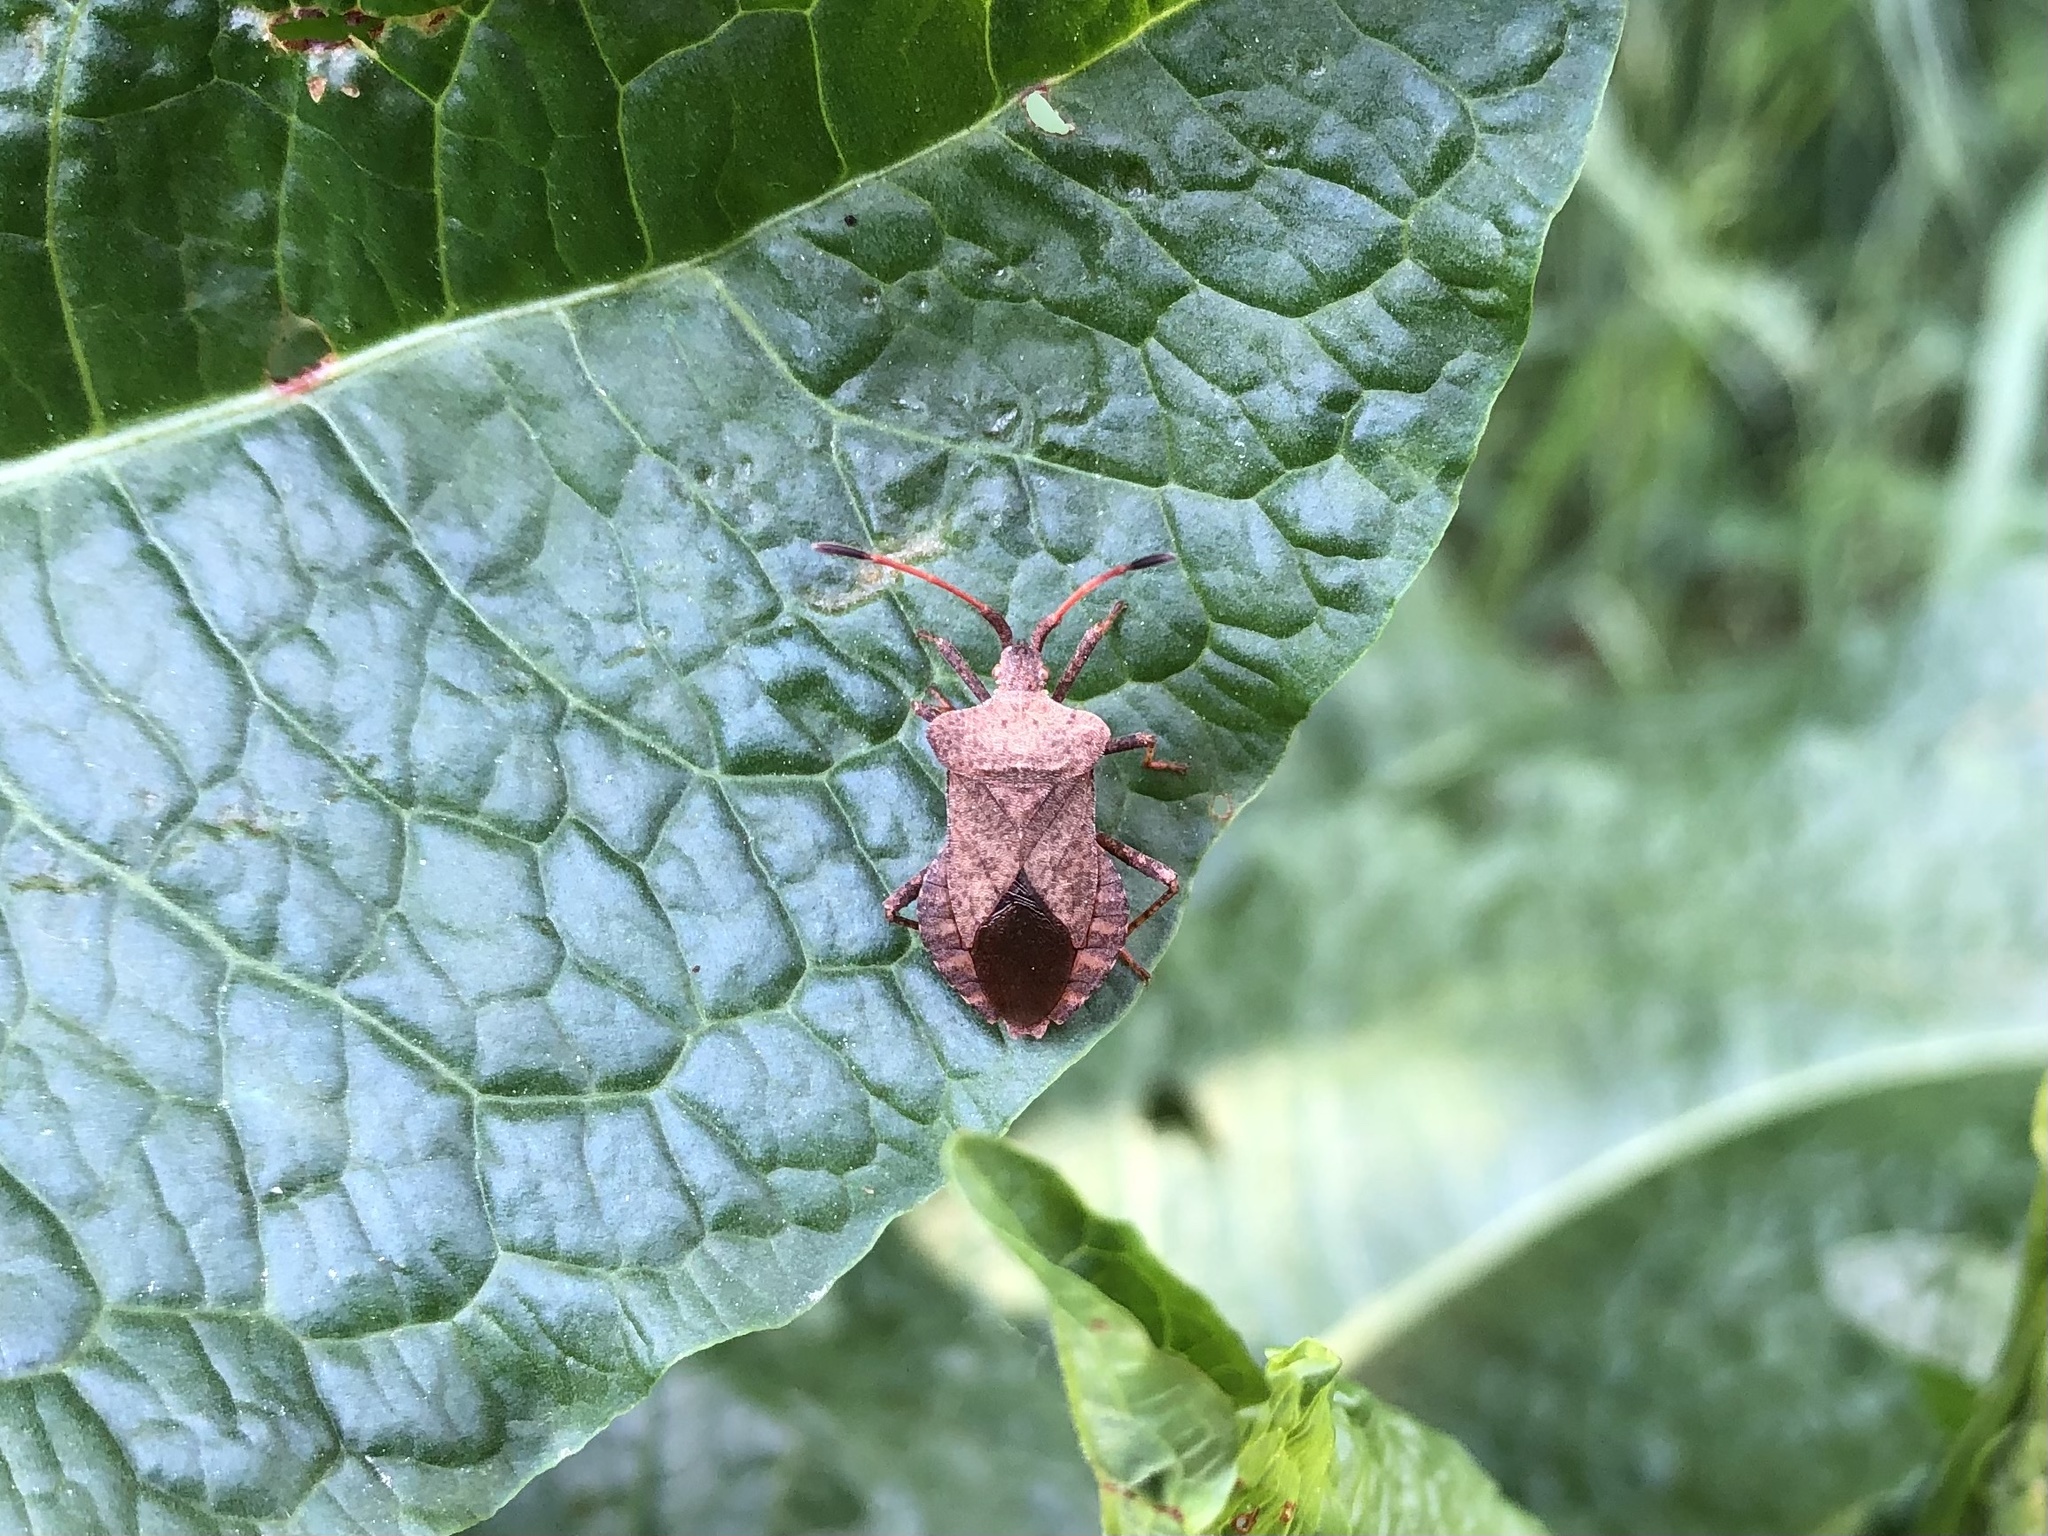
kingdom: Animalia
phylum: Arthropoda
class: Insecta
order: Hemiptera
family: Coreidae
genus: Coreus
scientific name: Coreus marginatus
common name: Dock bug
